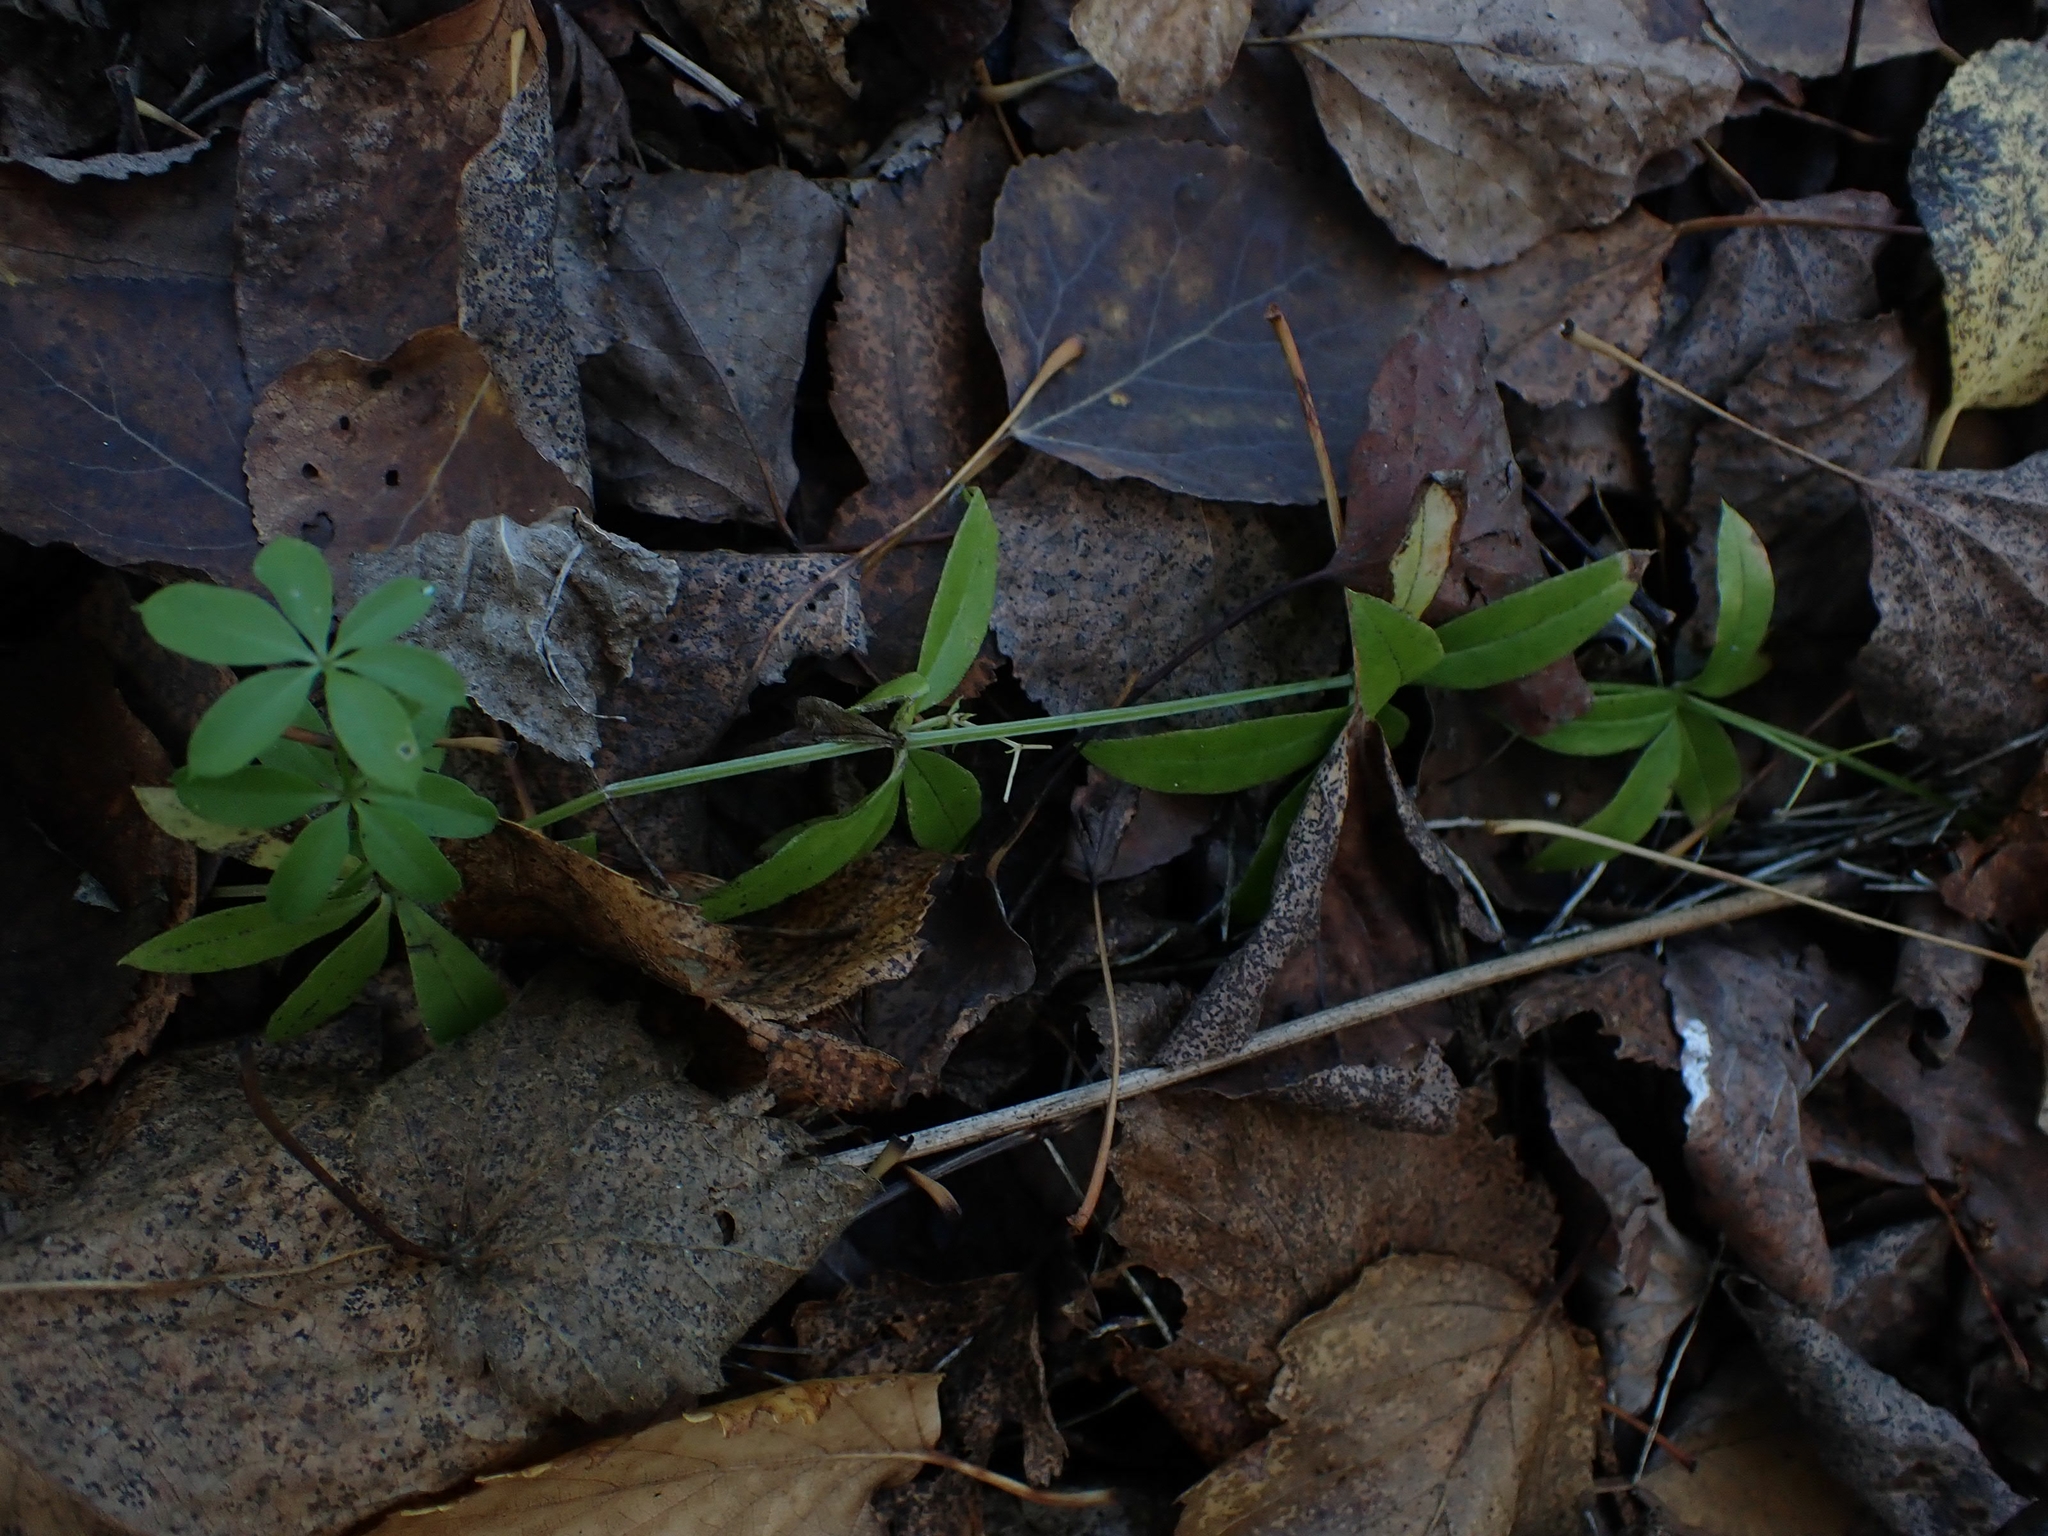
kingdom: Plantae
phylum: Tracheophyta
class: Magnoliopsida
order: Gentianales
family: Rubiaceae
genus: Galium
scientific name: Galium triflorum
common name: Fragrant bedstraw
